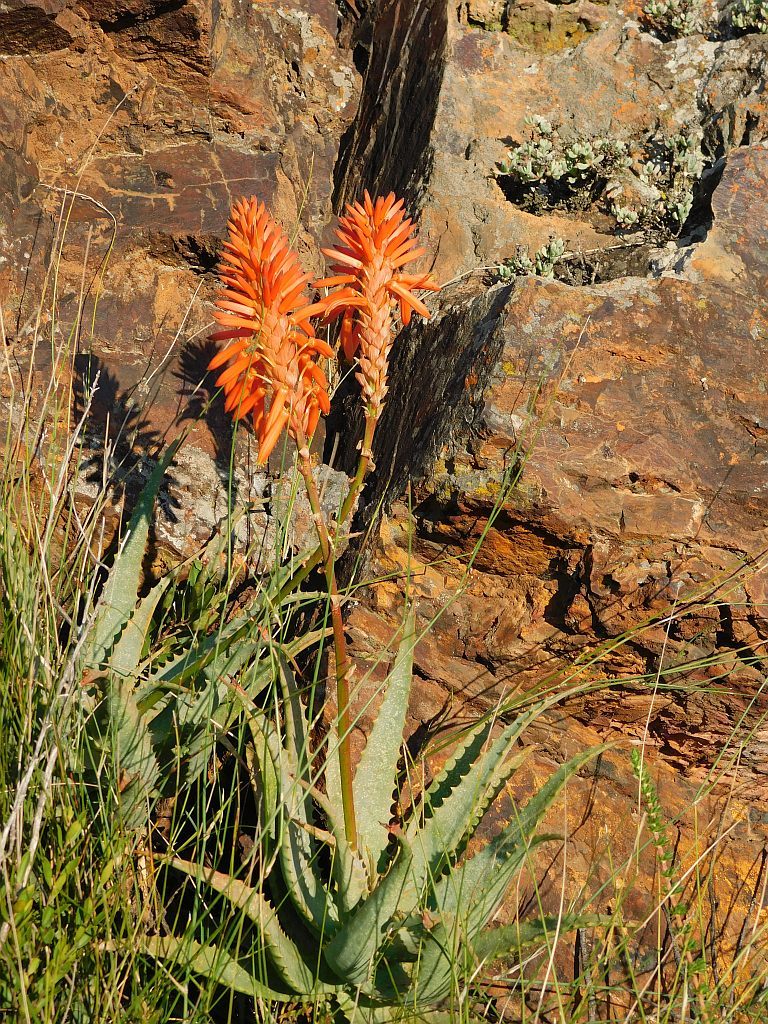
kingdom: Plantae
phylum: Tracheophyta
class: Liliopsida
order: Asparagales
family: Asphodelaceae
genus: Aloe
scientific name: Aloe arborescens
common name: Candelabra aloe
